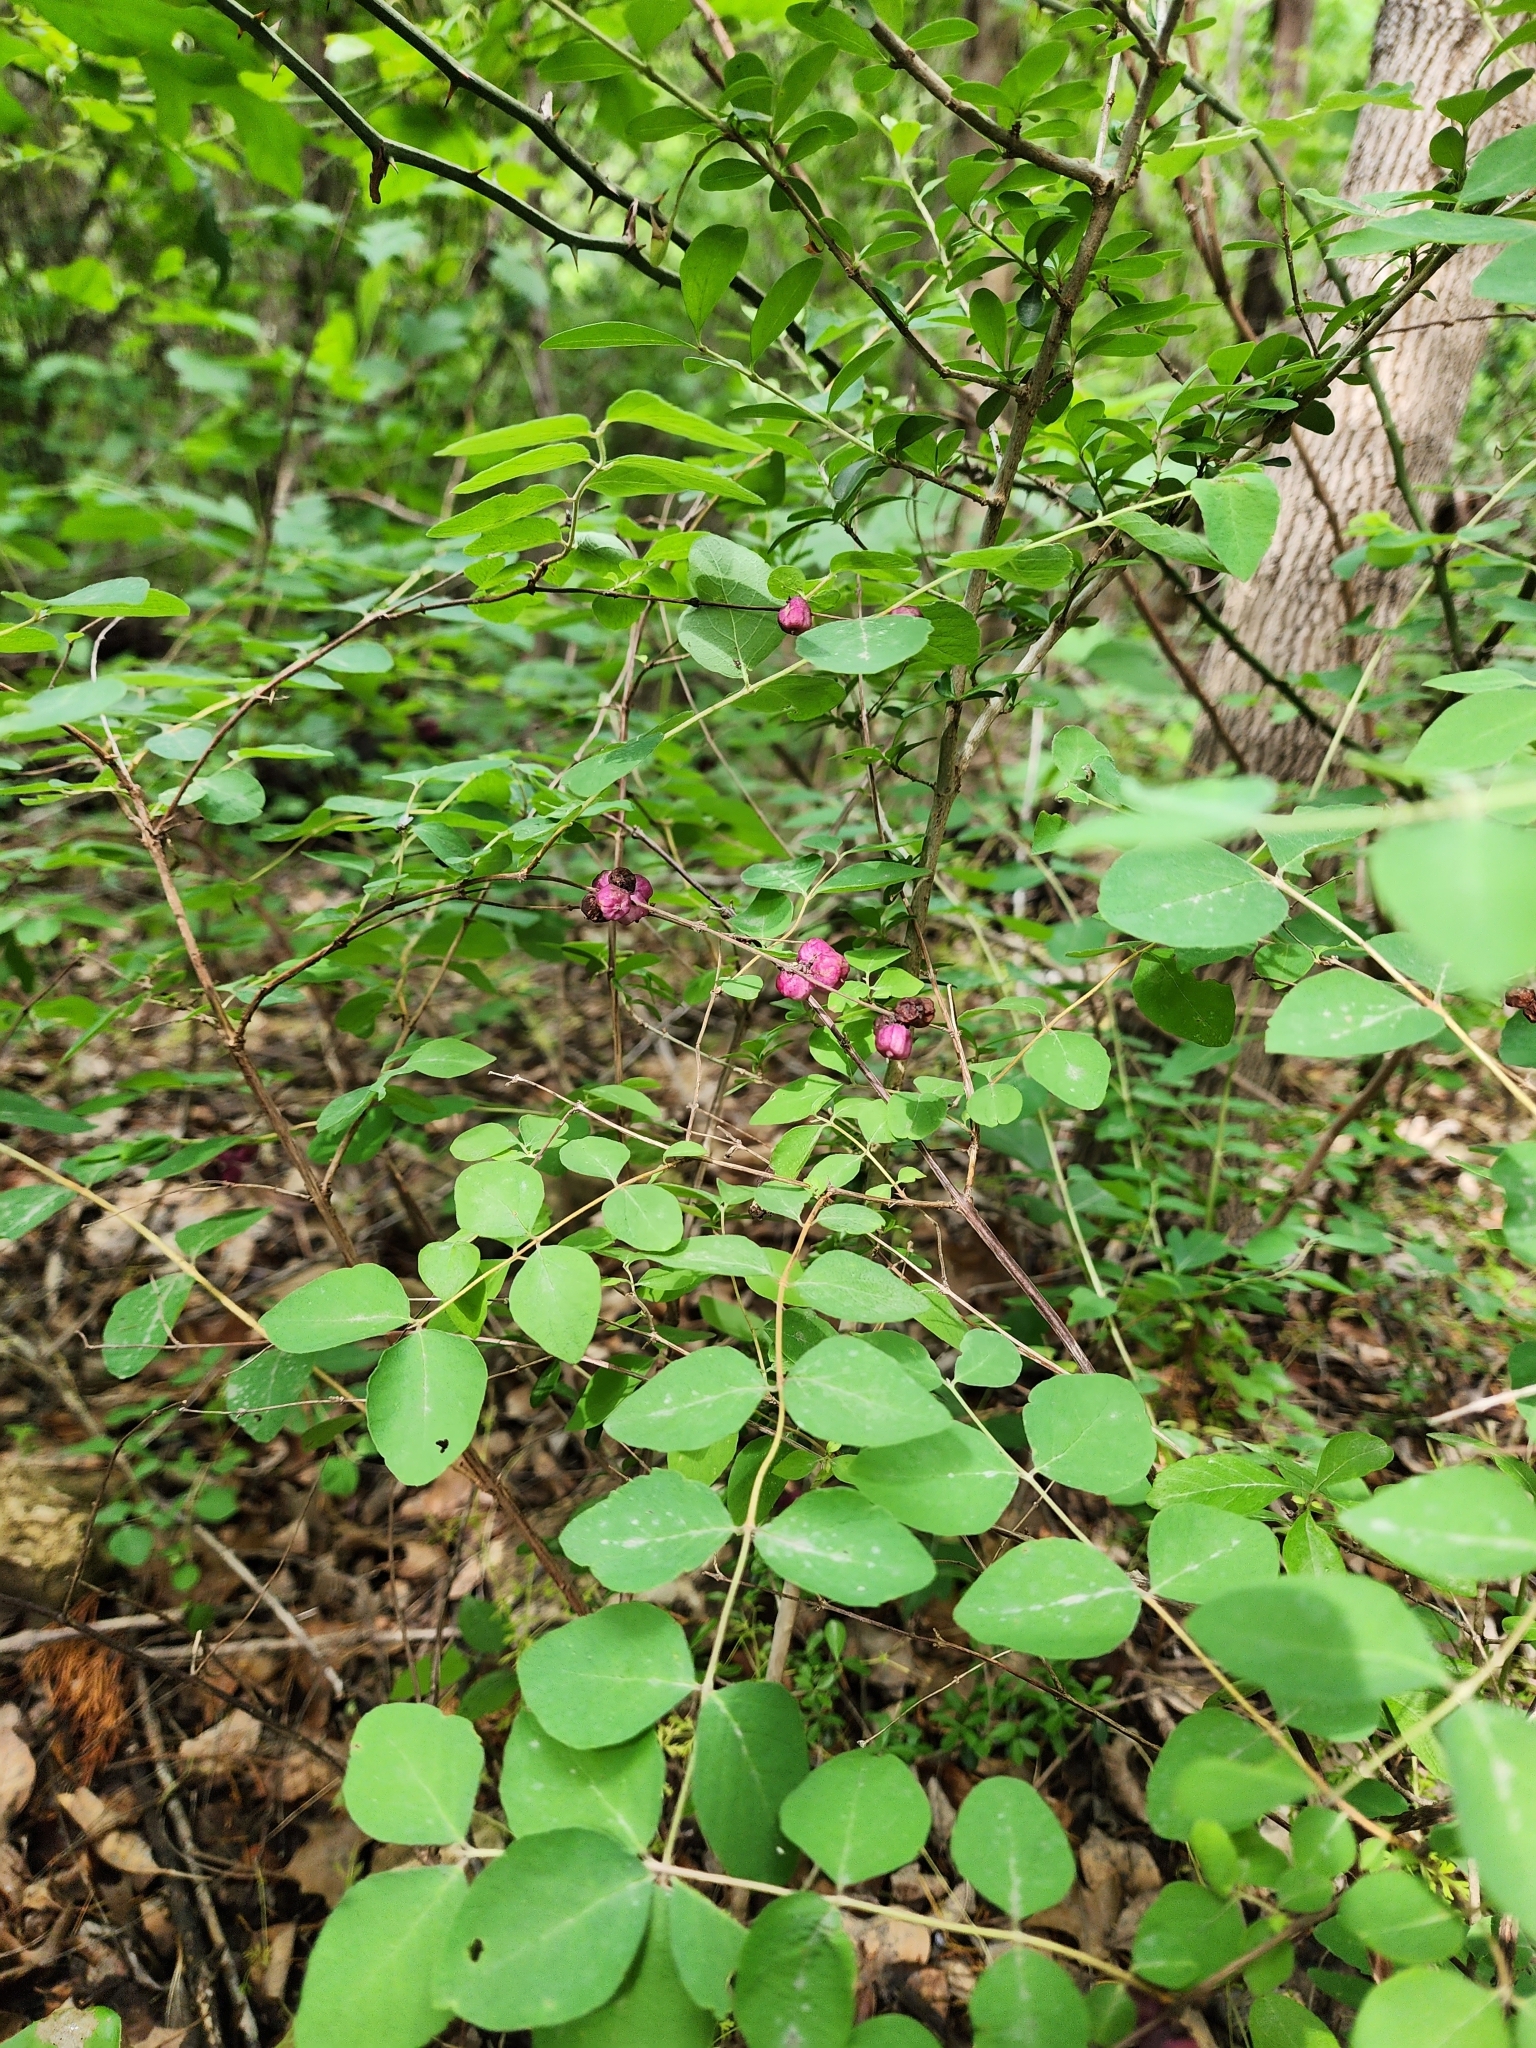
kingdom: Plantae
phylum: Tracheophyta
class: Magnoliopsida
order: Dipsacales
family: Caprifoliaceae
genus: Symphoricarpos
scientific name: Symphoricarpos orbiculatus
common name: Coralberry
